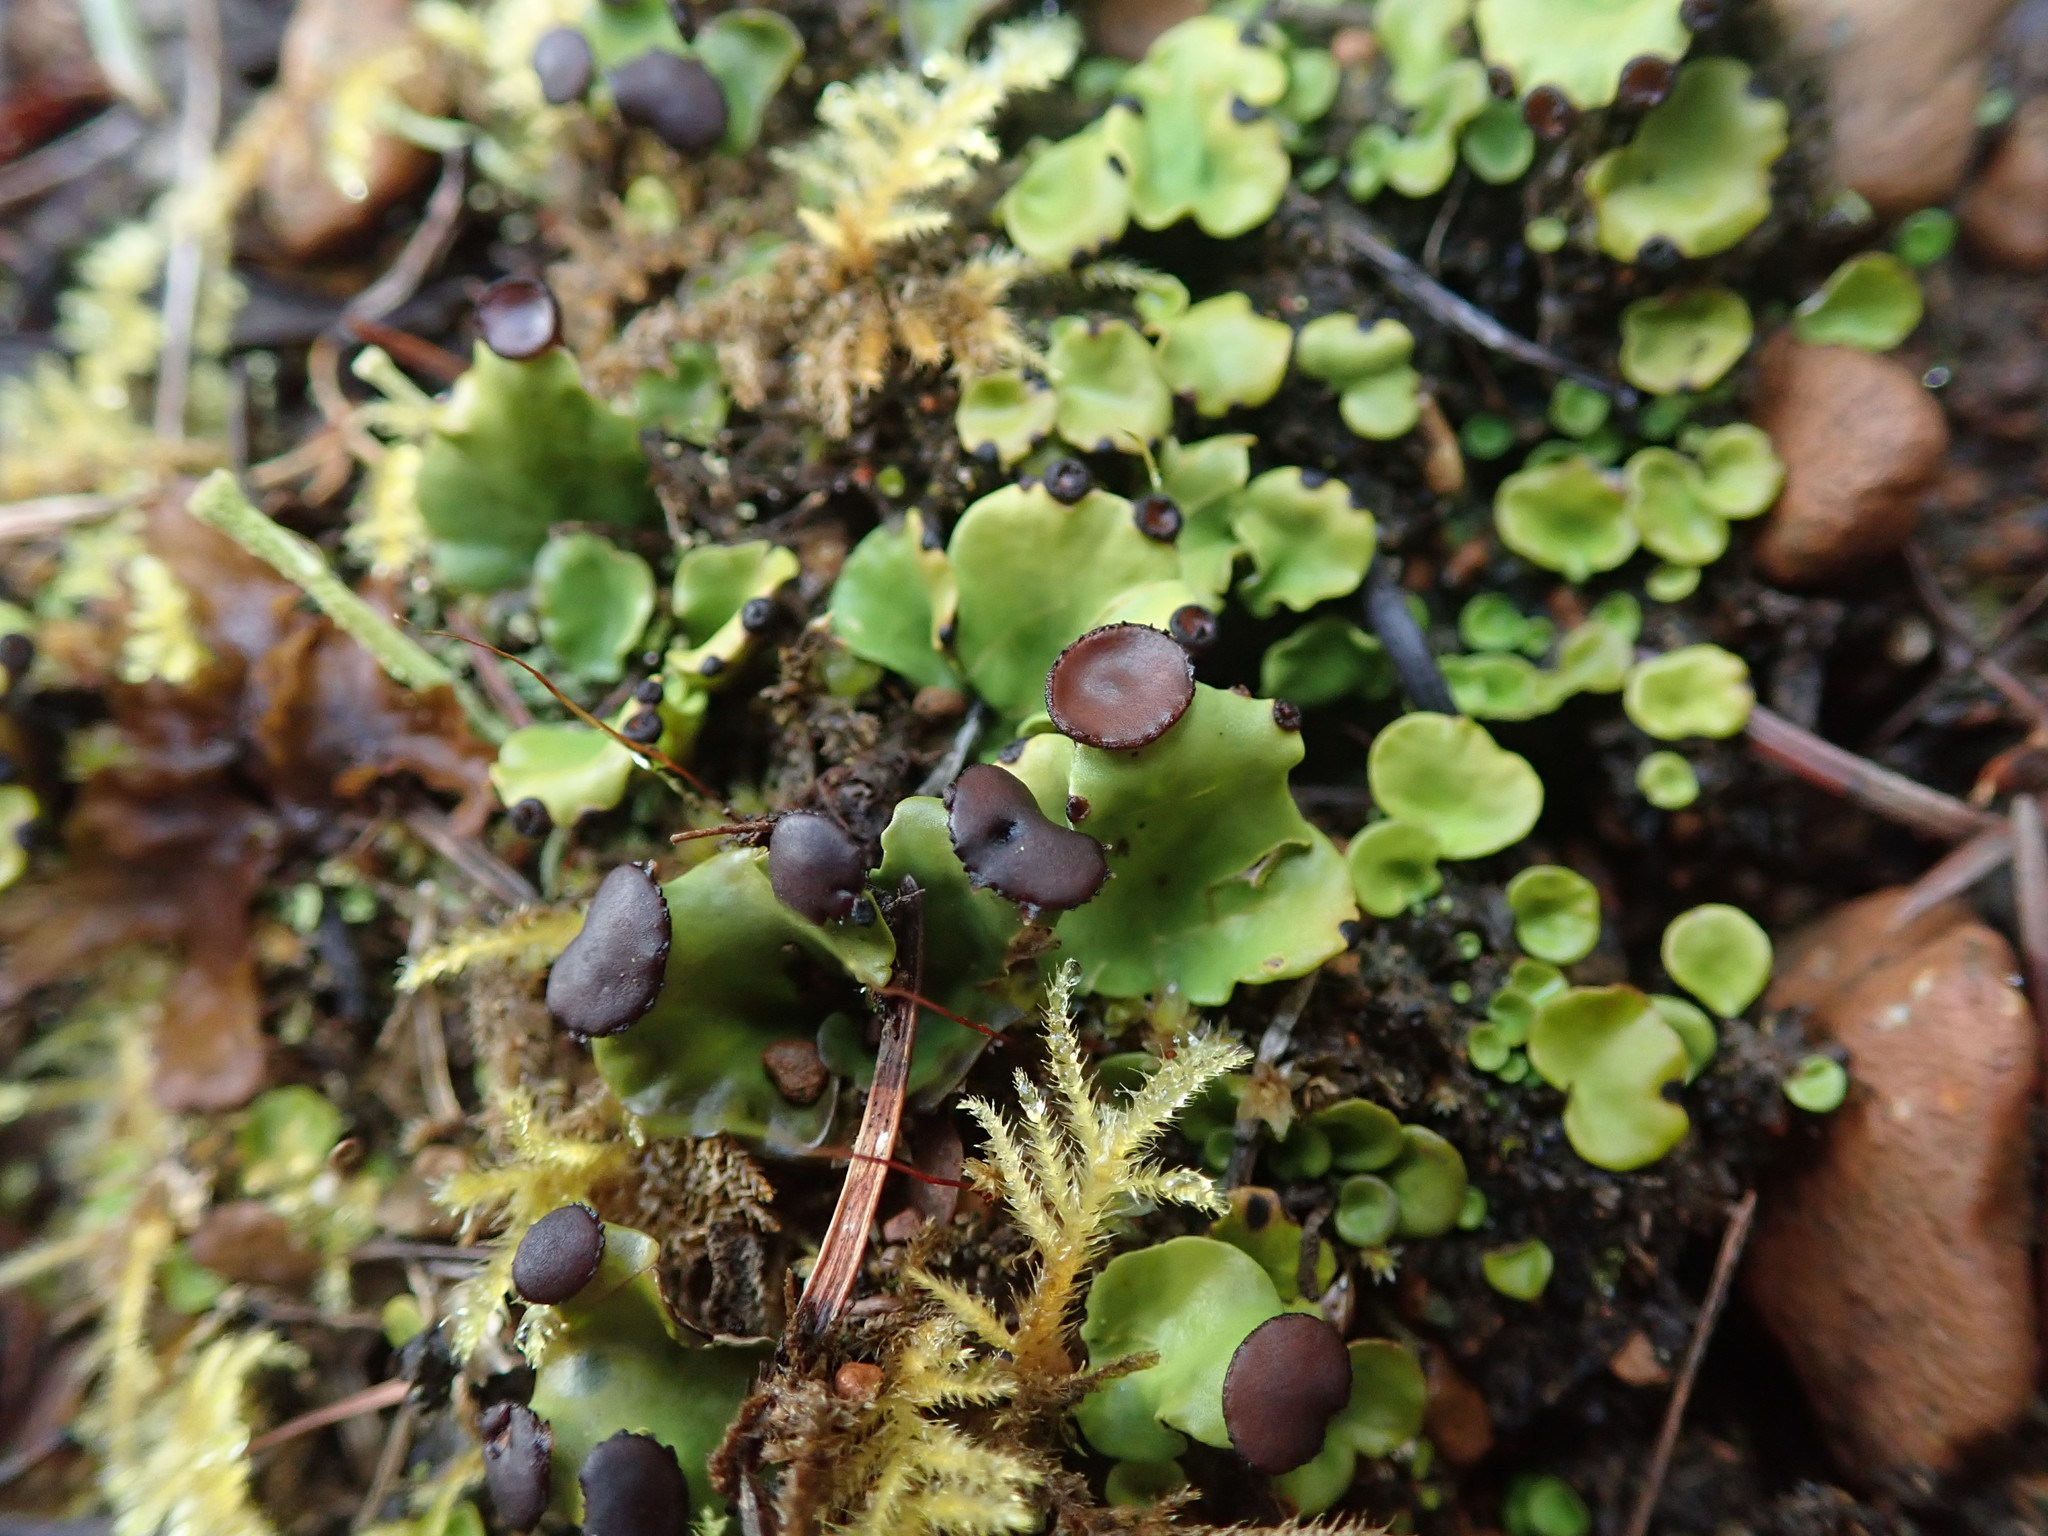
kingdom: Fungi
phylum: Ascomycota
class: Lecanoromycetes
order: Peltigerales
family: Peltigeraceae
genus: Peltigera
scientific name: Peltigera venosa
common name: Pixie gowns lichen
